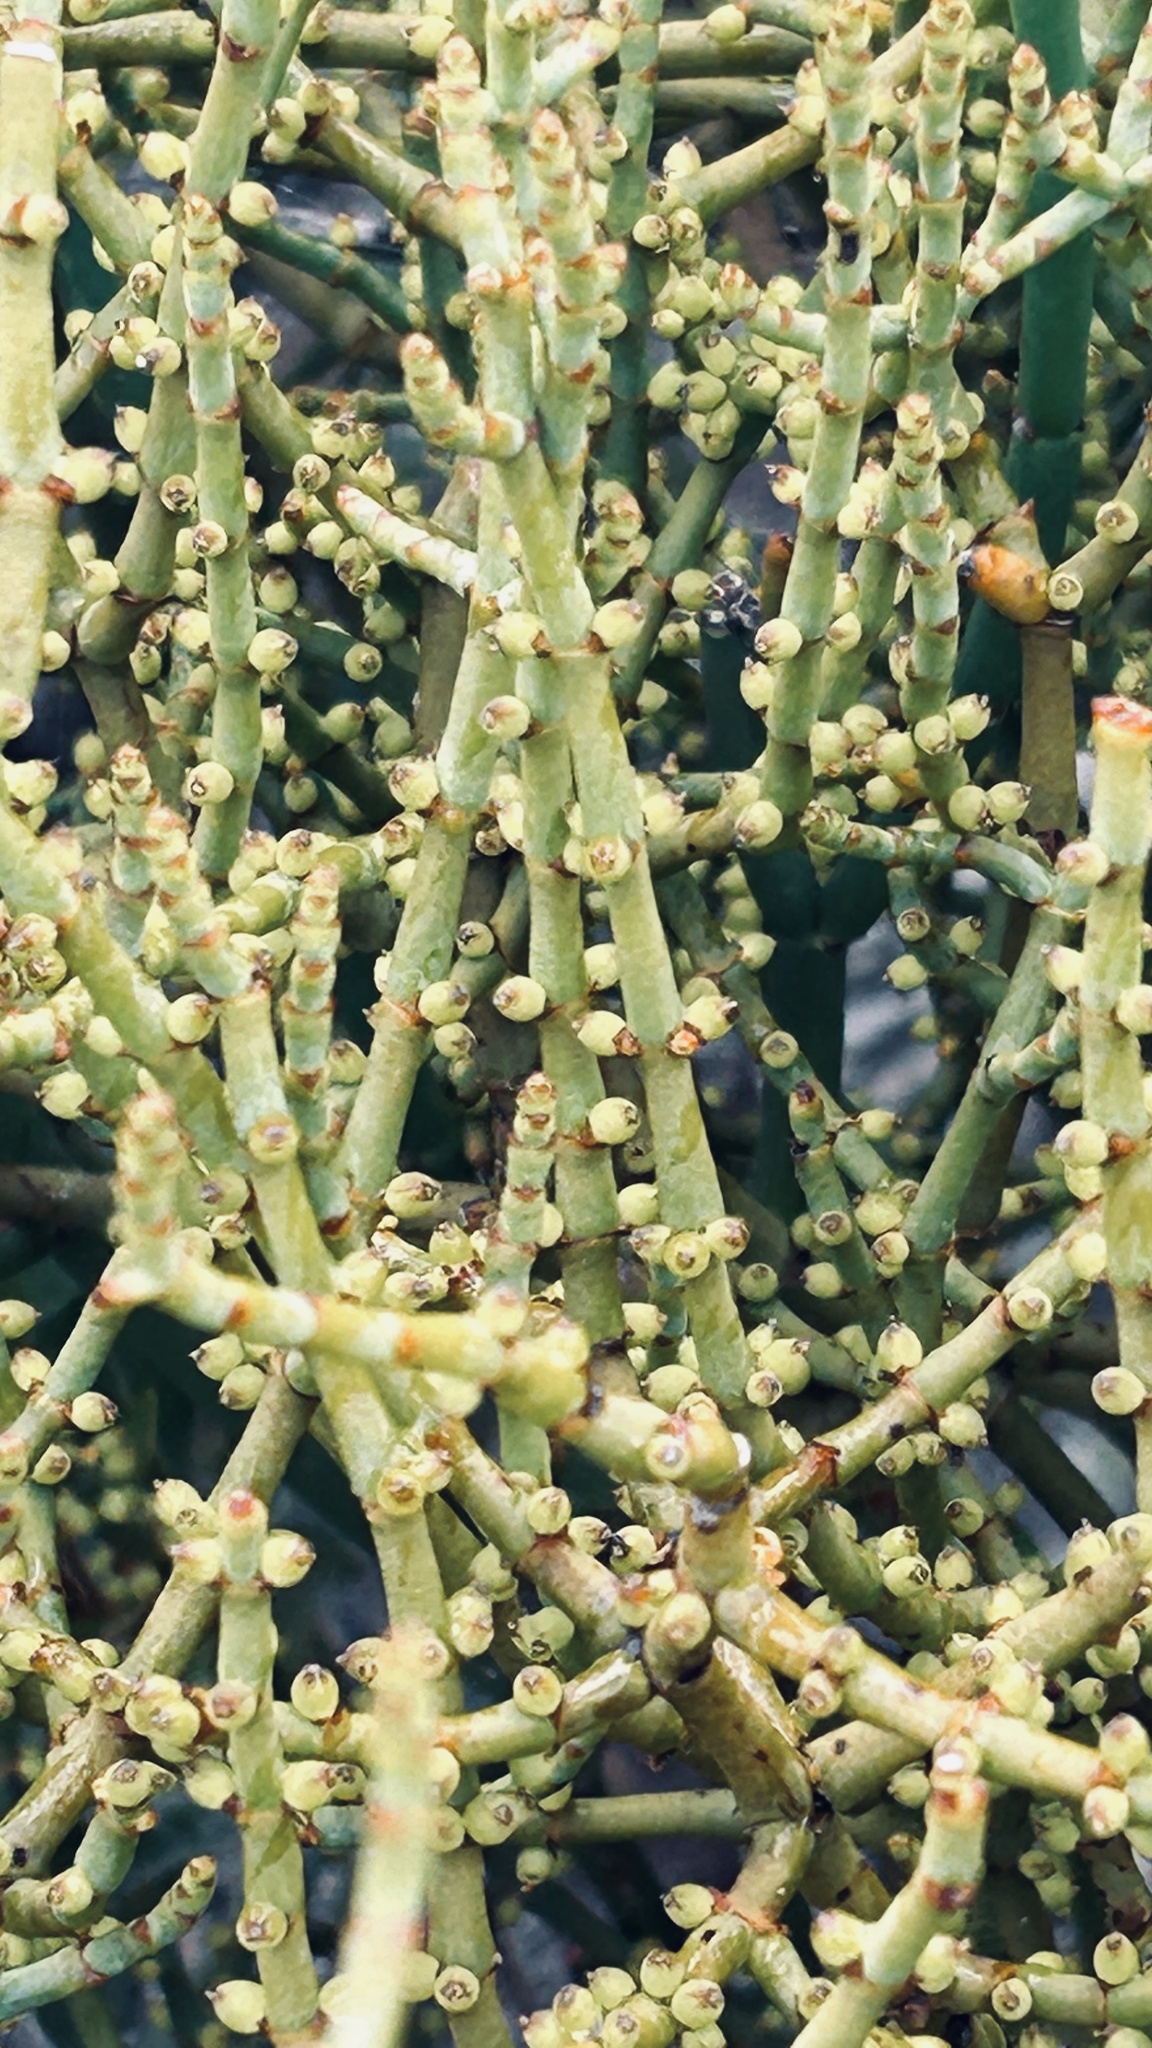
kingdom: Plantae
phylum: Tracheophyta
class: Magnoliopsida
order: Santalales
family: Viscaceae
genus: Viscum
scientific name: Viscum capense
